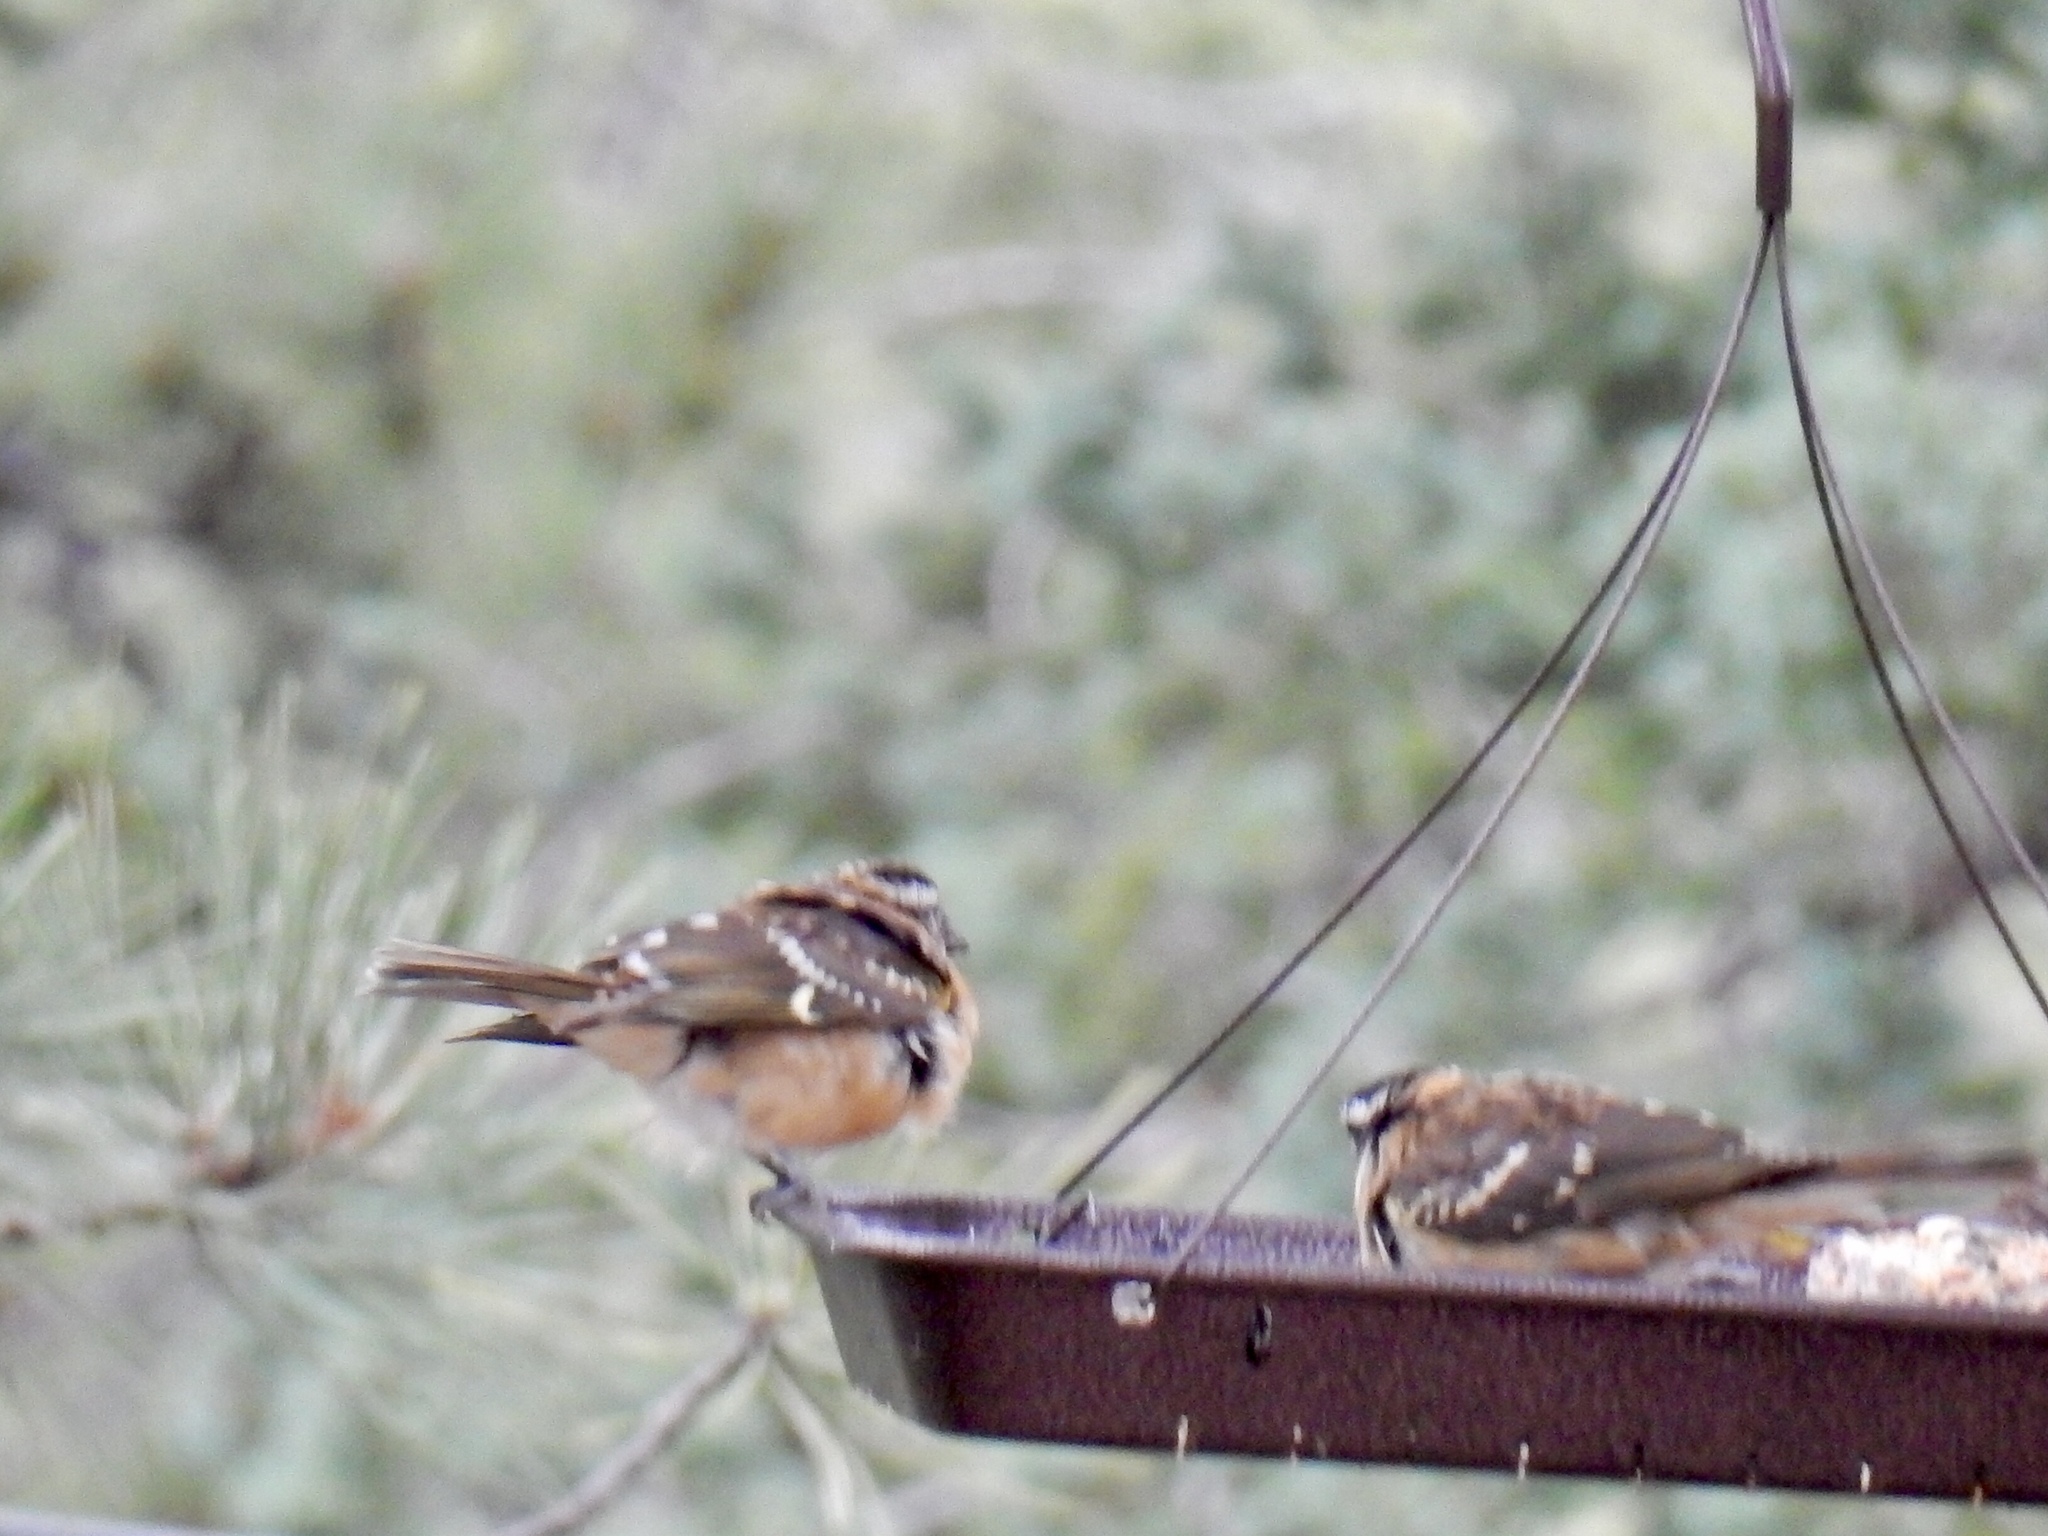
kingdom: Animalia
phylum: Chordata
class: Aves
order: Passeriformes
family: Cardinalidae
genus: Pheucticus
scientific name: Pheucticus melanocephalus
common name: Black-headed grosbeak
